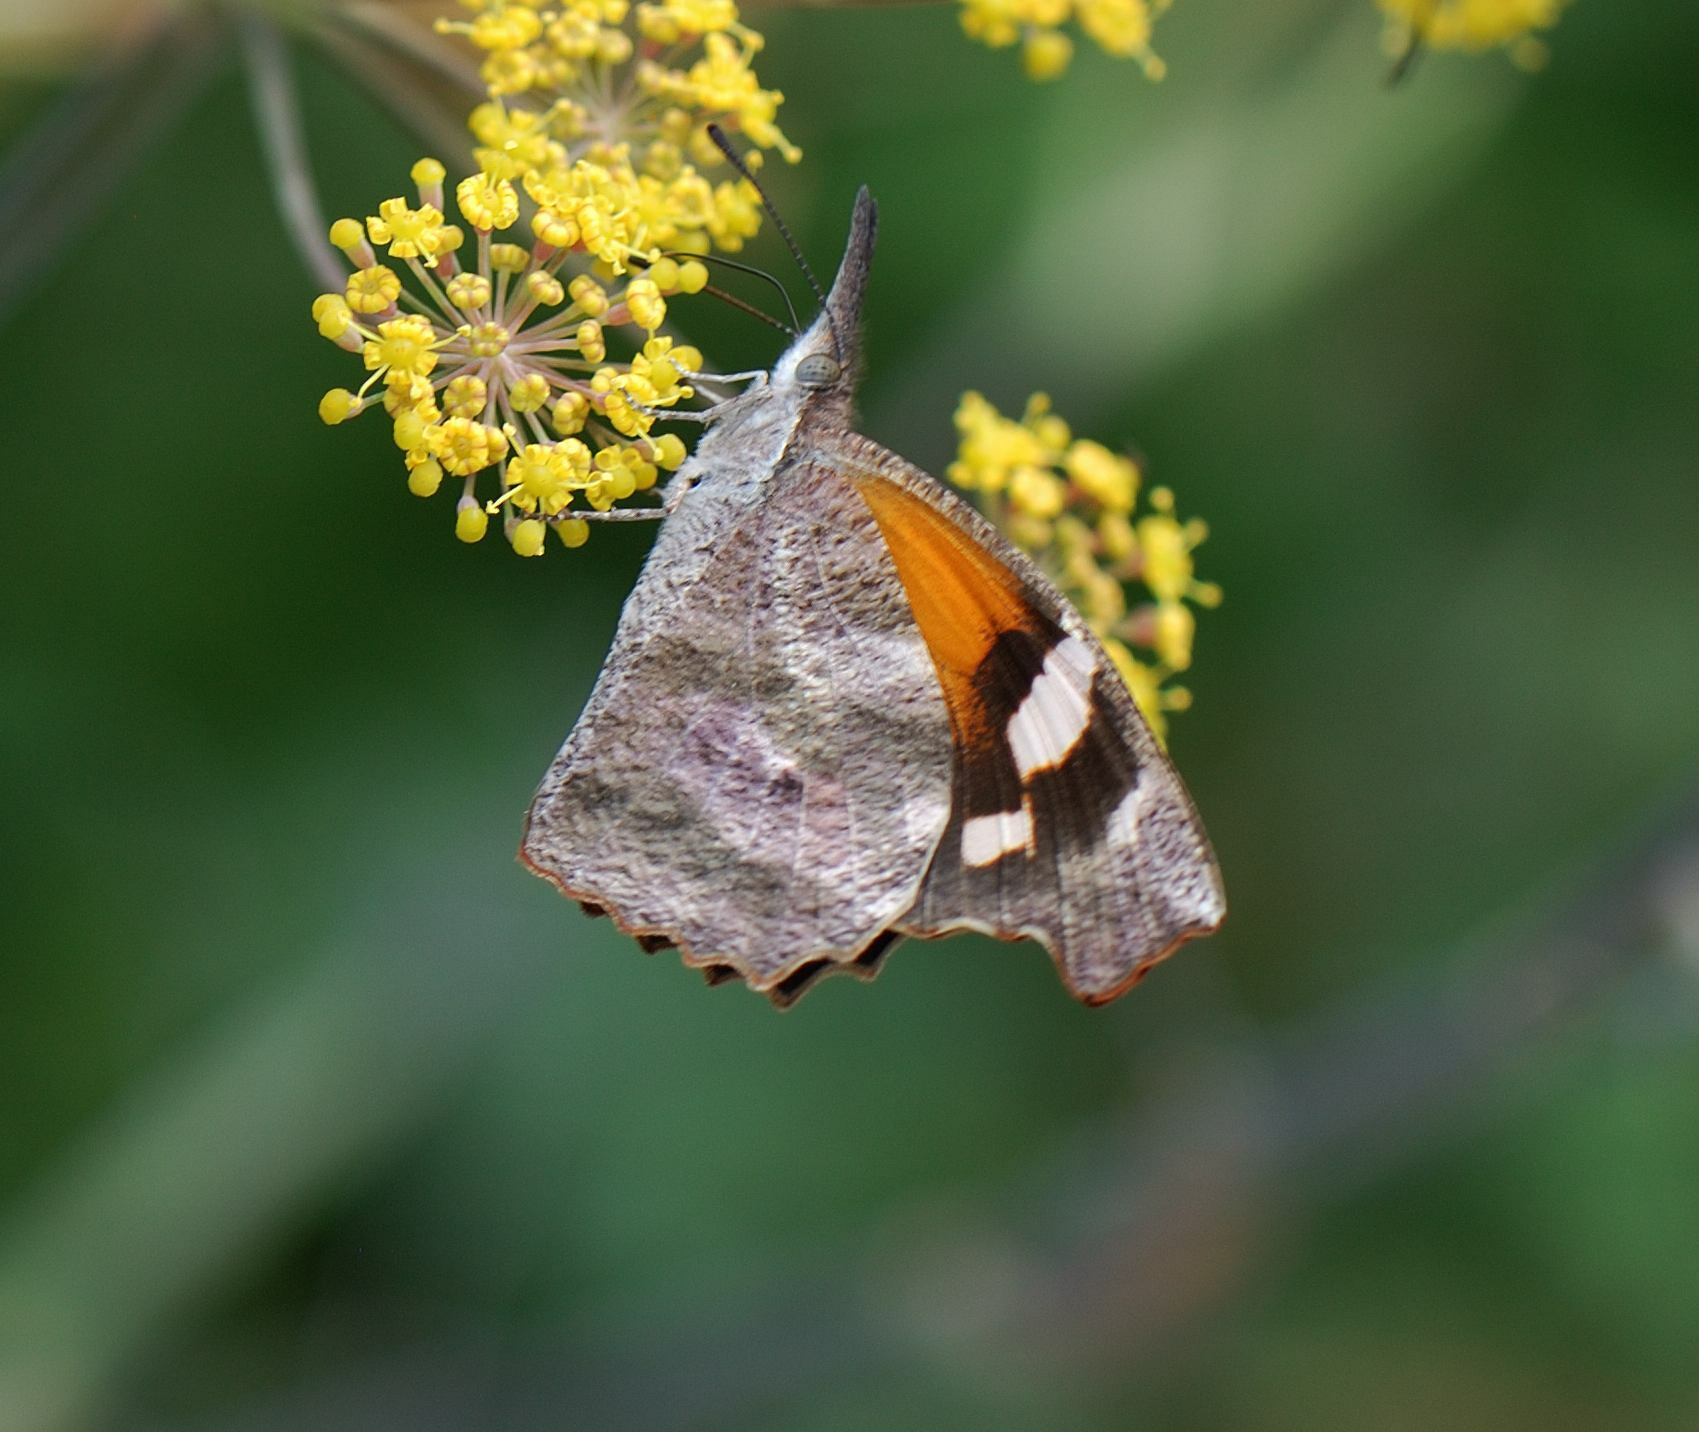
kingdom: Animalia
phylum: Arthropoda
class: Insecta
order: Lepidoptera
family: Nymphalidae
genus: Libytheana
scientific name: Libytheana carinenta
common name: American snout
